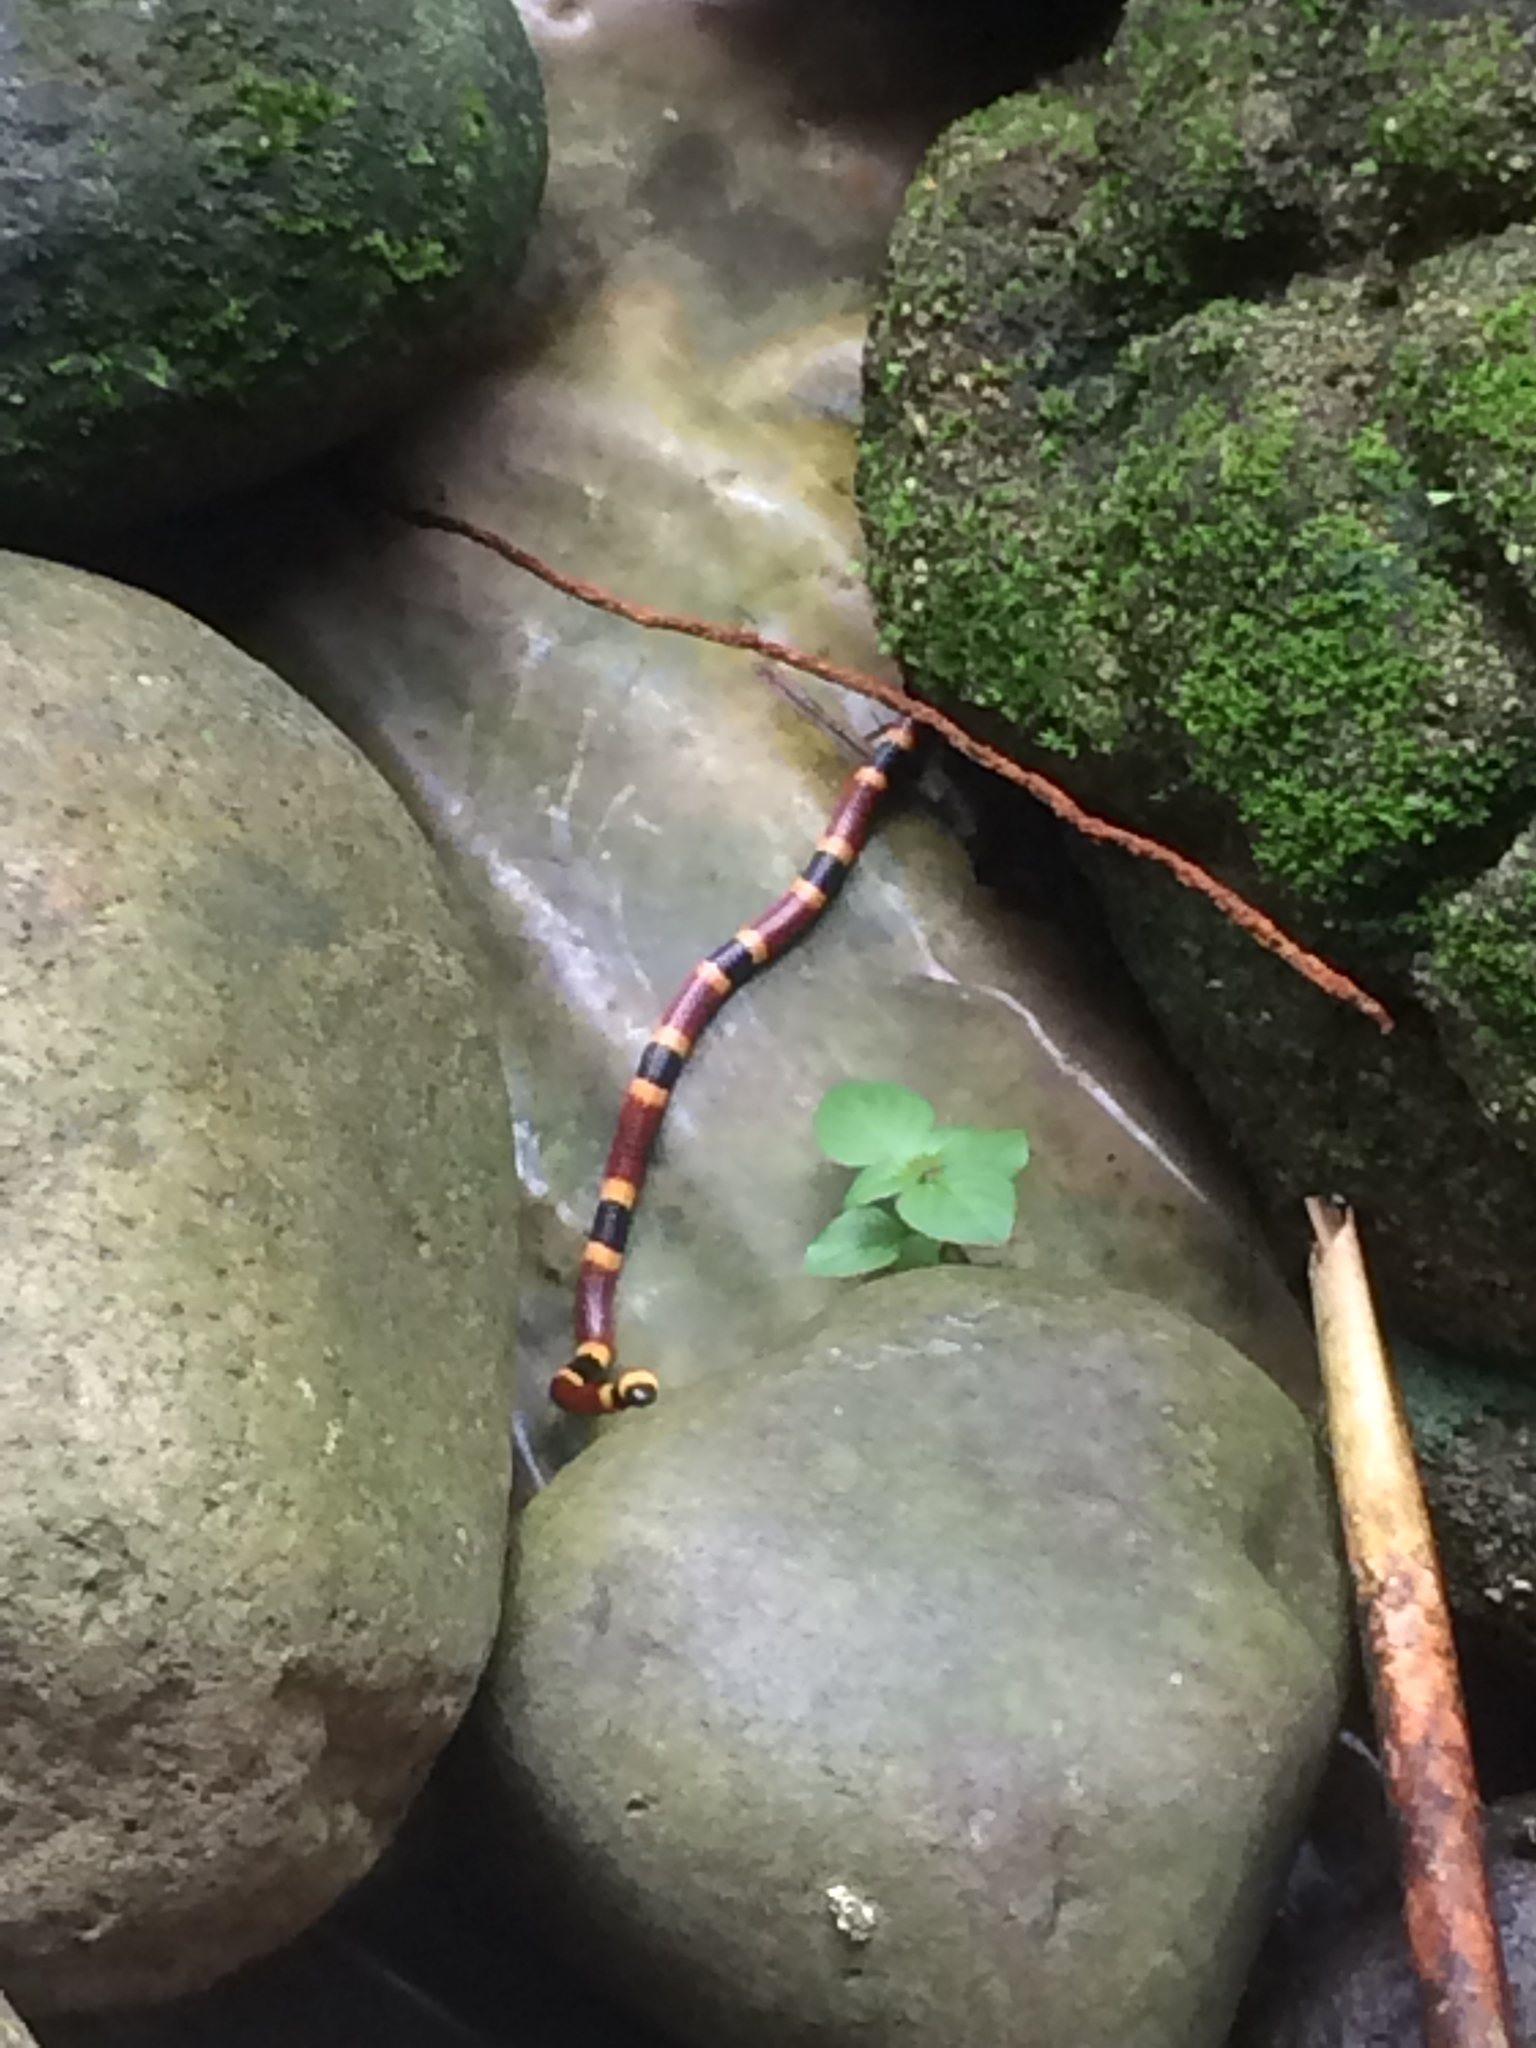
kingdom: Animalia
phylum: Chordata
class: Squamata
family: Elapidae
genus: Micrurus
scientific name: Micrurus mosquitensis
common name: Misquito coral snake
